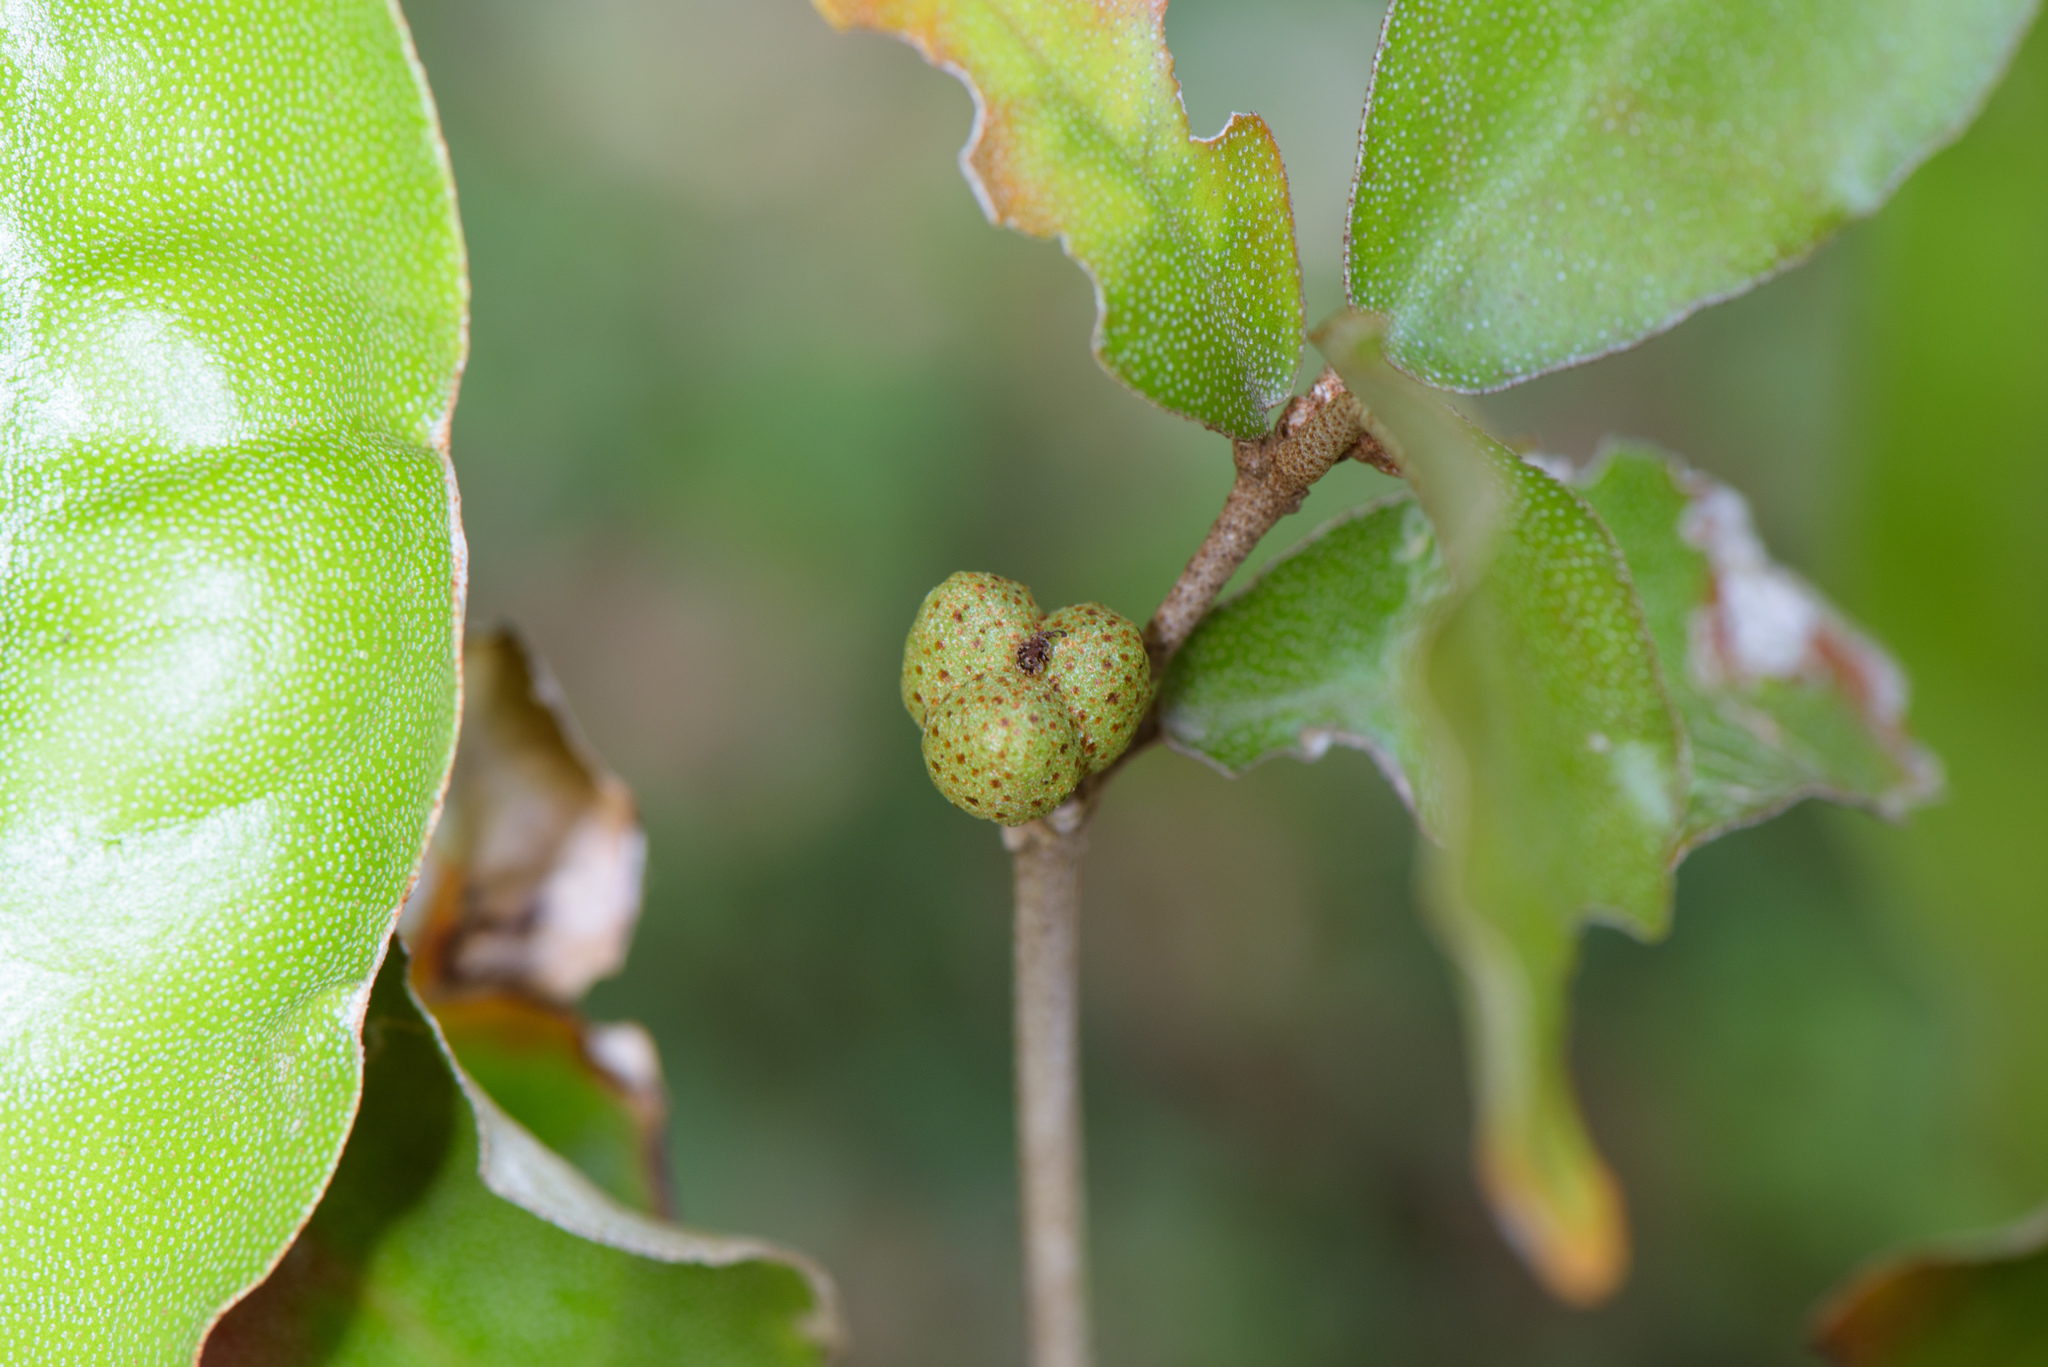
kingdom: Plantae
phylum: Tracheophyta
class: Magnoliopsida
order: Malpighiales
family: Euphorbiaceae
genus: Croton
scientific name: Croton cascarilloides
